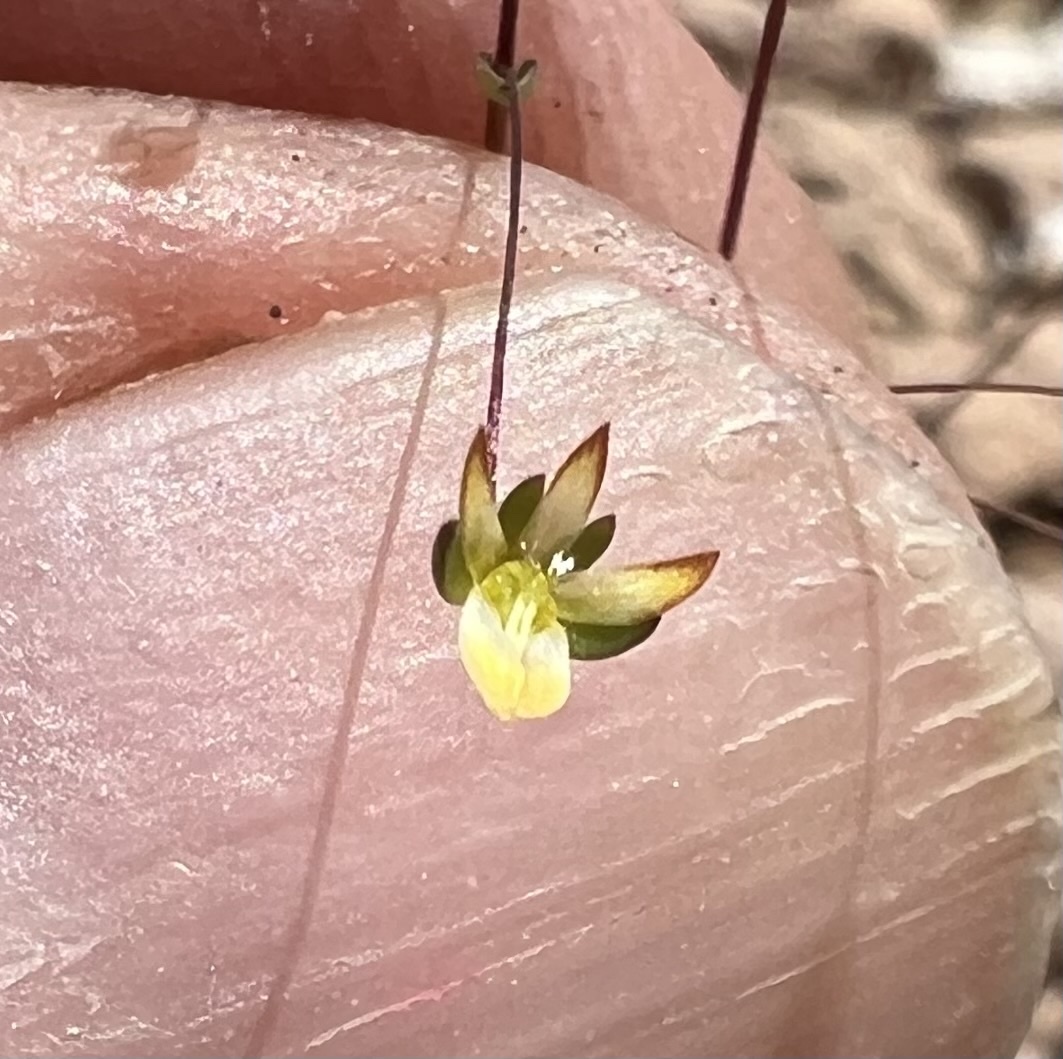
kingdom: Plantae
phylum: Tracheophyta
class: Magnoliopsida
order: Asterales
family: Campanulaceae
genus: Nemacladus
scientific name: Nemacladus morefieldii
